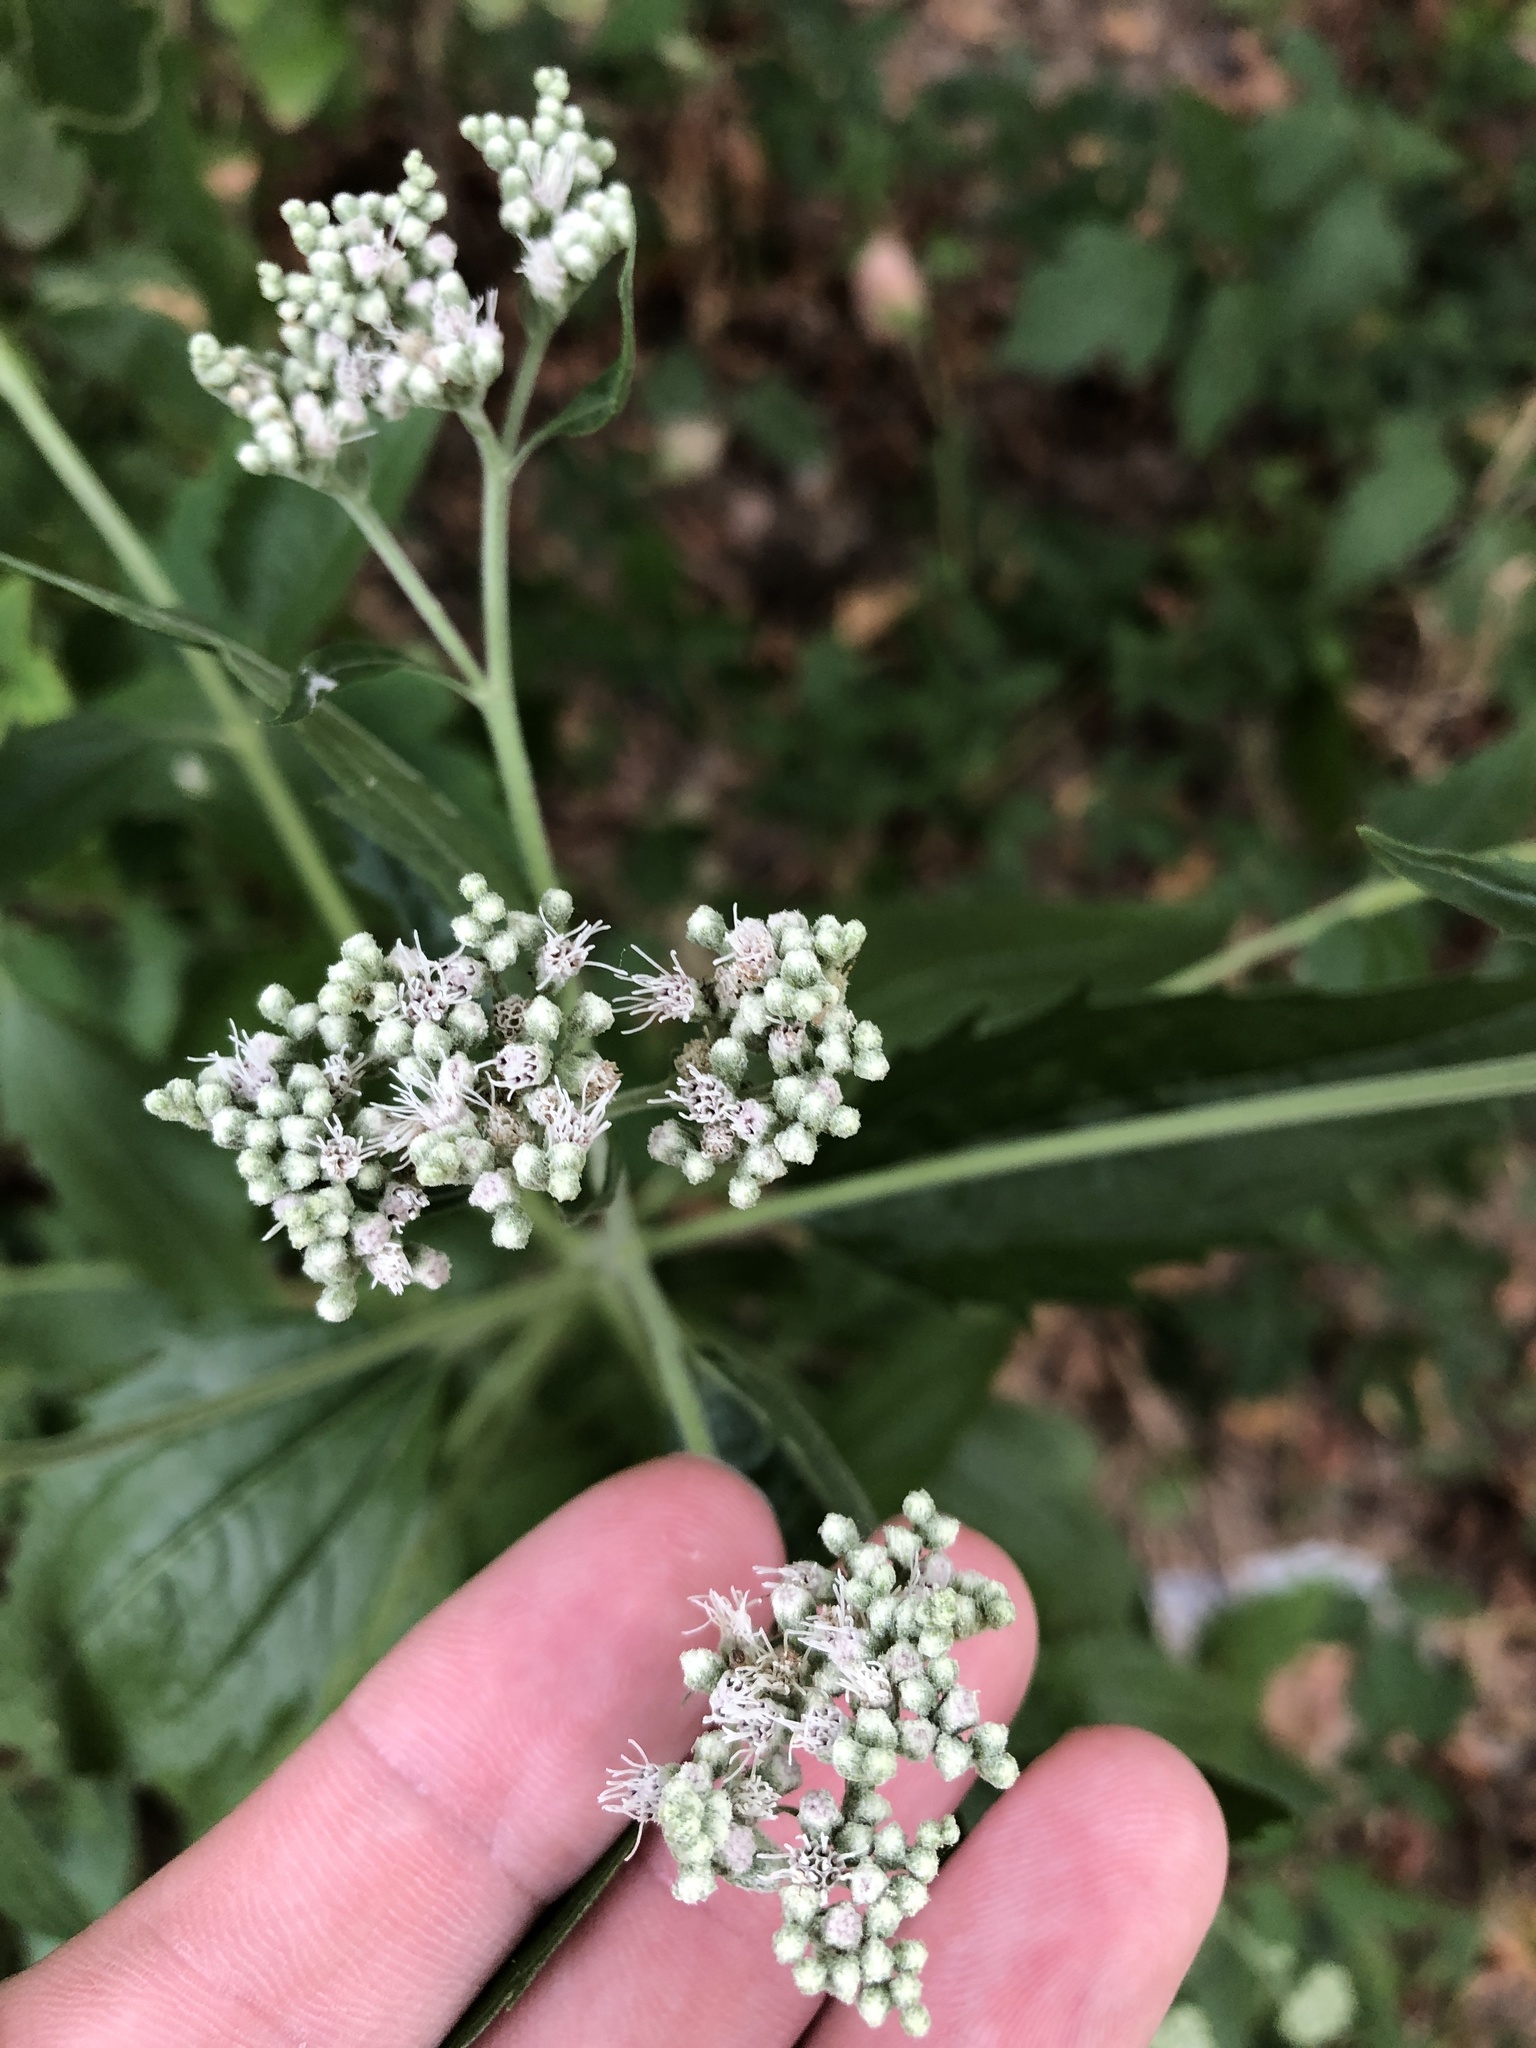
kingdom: Plantae
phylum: Tracheophyta
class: Magnoliopsida
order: Asterales
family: Asteraceae
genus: Eupatorium
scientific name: Eupatorium serotinum
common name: Late boneset
